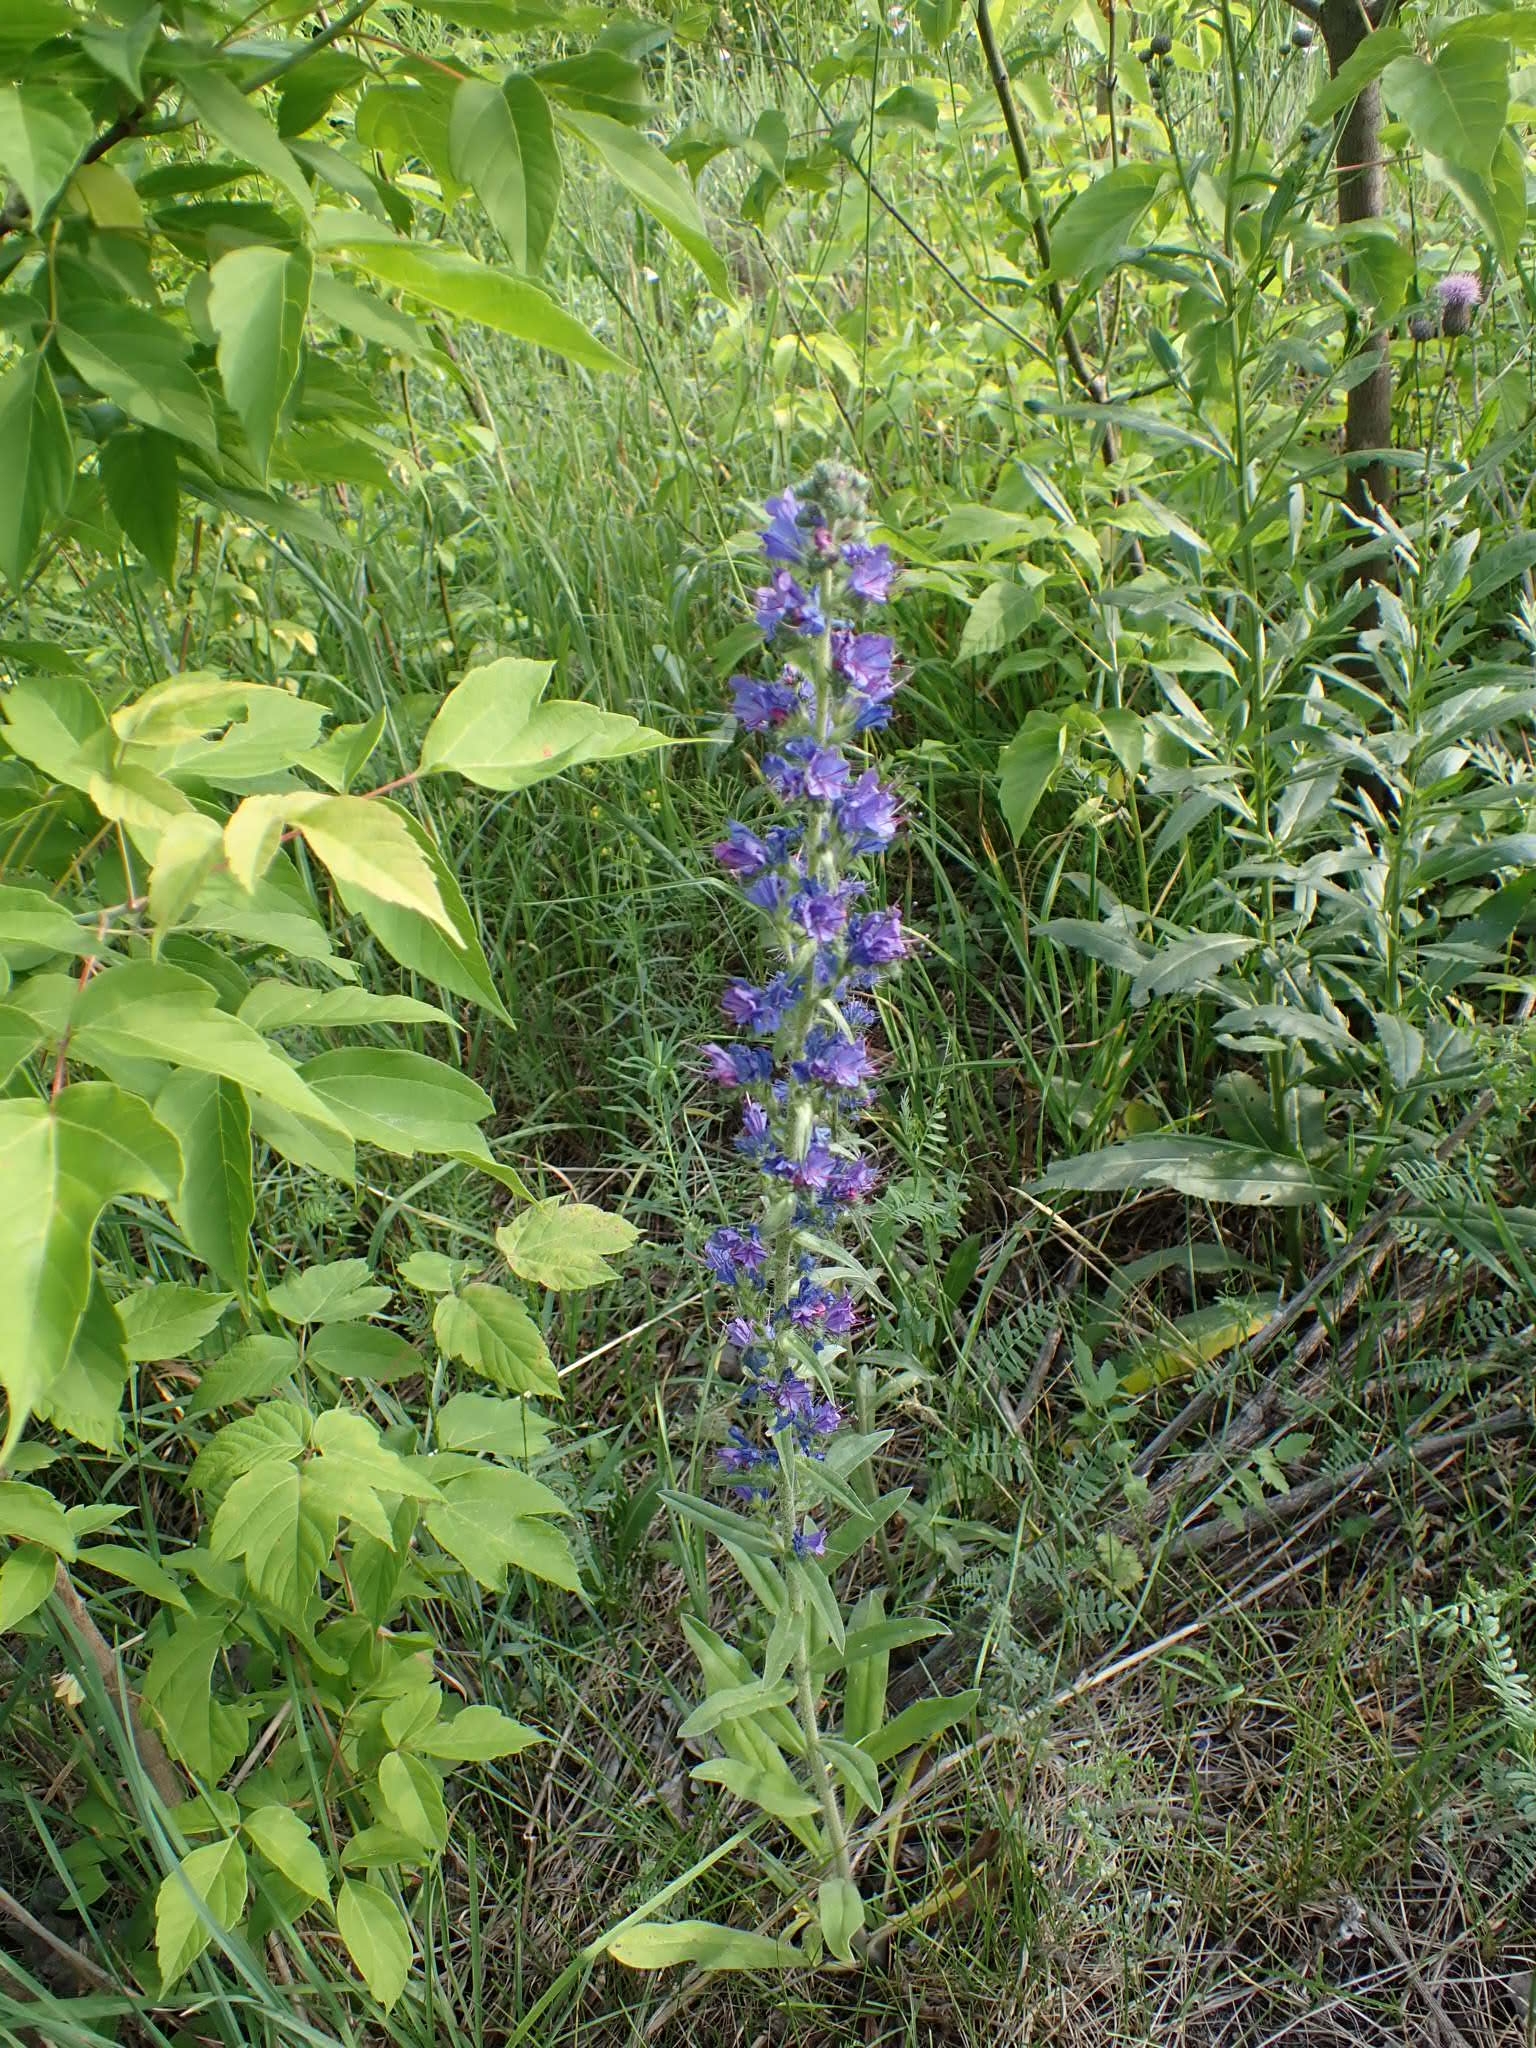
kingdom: Plantae
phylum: Tracheophyta
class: Magnoliopsida
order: Boraginales
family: Boraginaceae
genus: Echium
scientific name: Echium vulgare
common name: Common viper's bugloss
